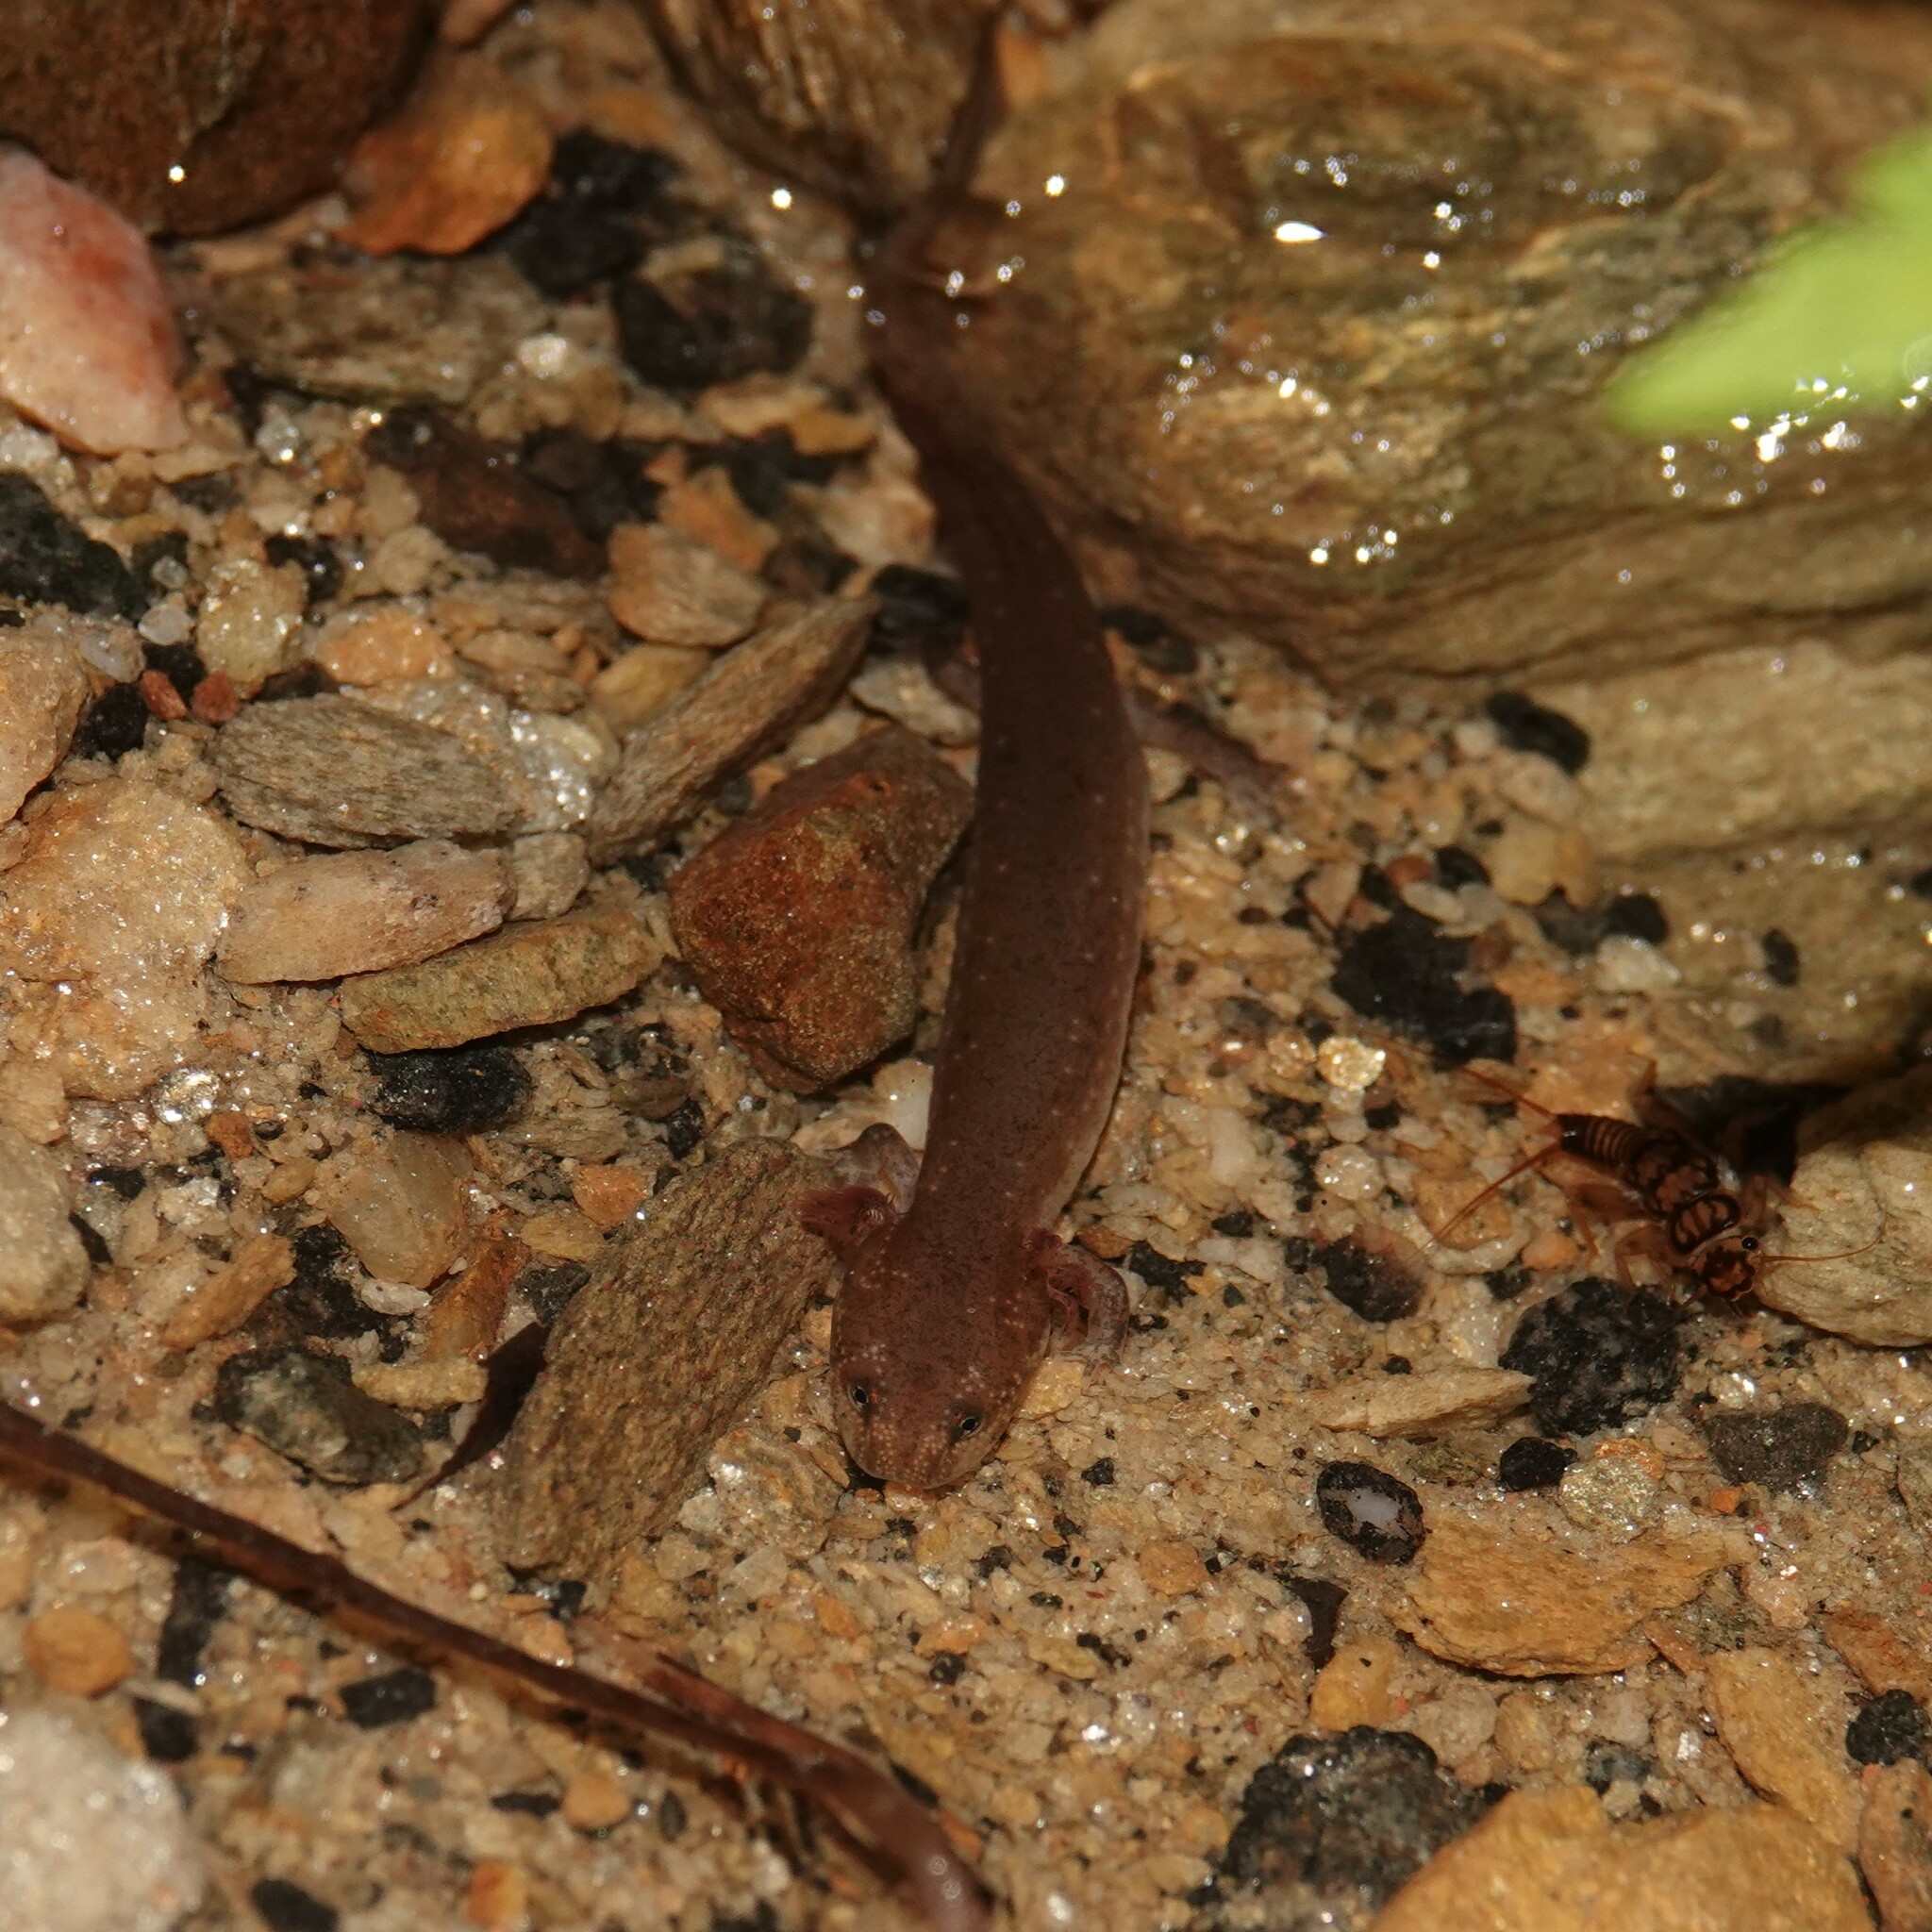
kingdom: Animalia
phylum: Chordata
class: Amphibia
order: Caudata
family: Plethodontidae
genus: Pseudotriton
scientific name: Pseudotriton ruber
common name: Red salamander
